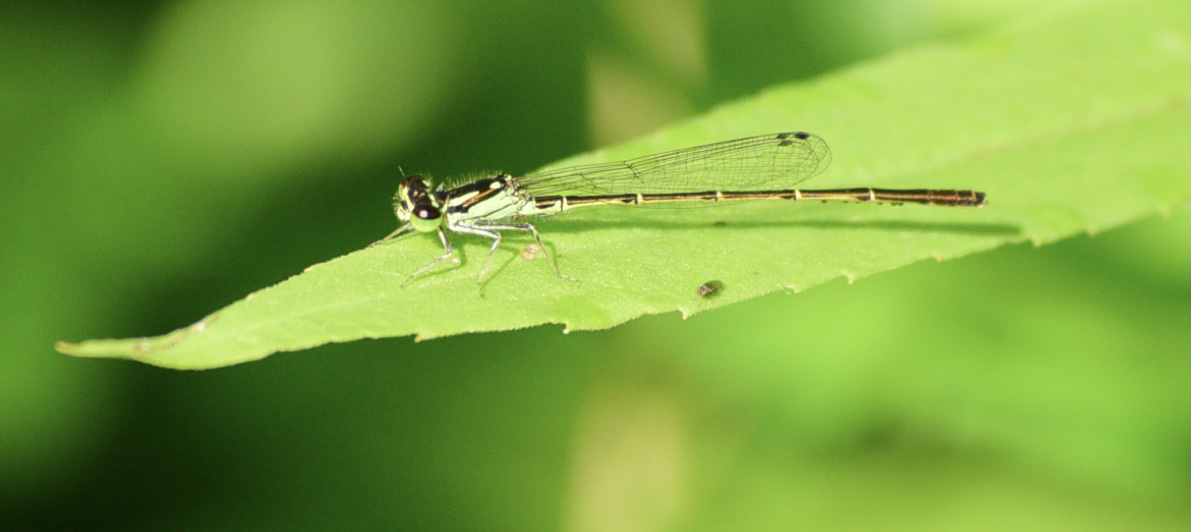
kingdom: Animalia
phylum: Arthropoda
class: Insecta
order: Odonata
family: Coenagrionidae
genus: Ischnura
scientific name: Ischnura posita
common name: Fragile forktail
